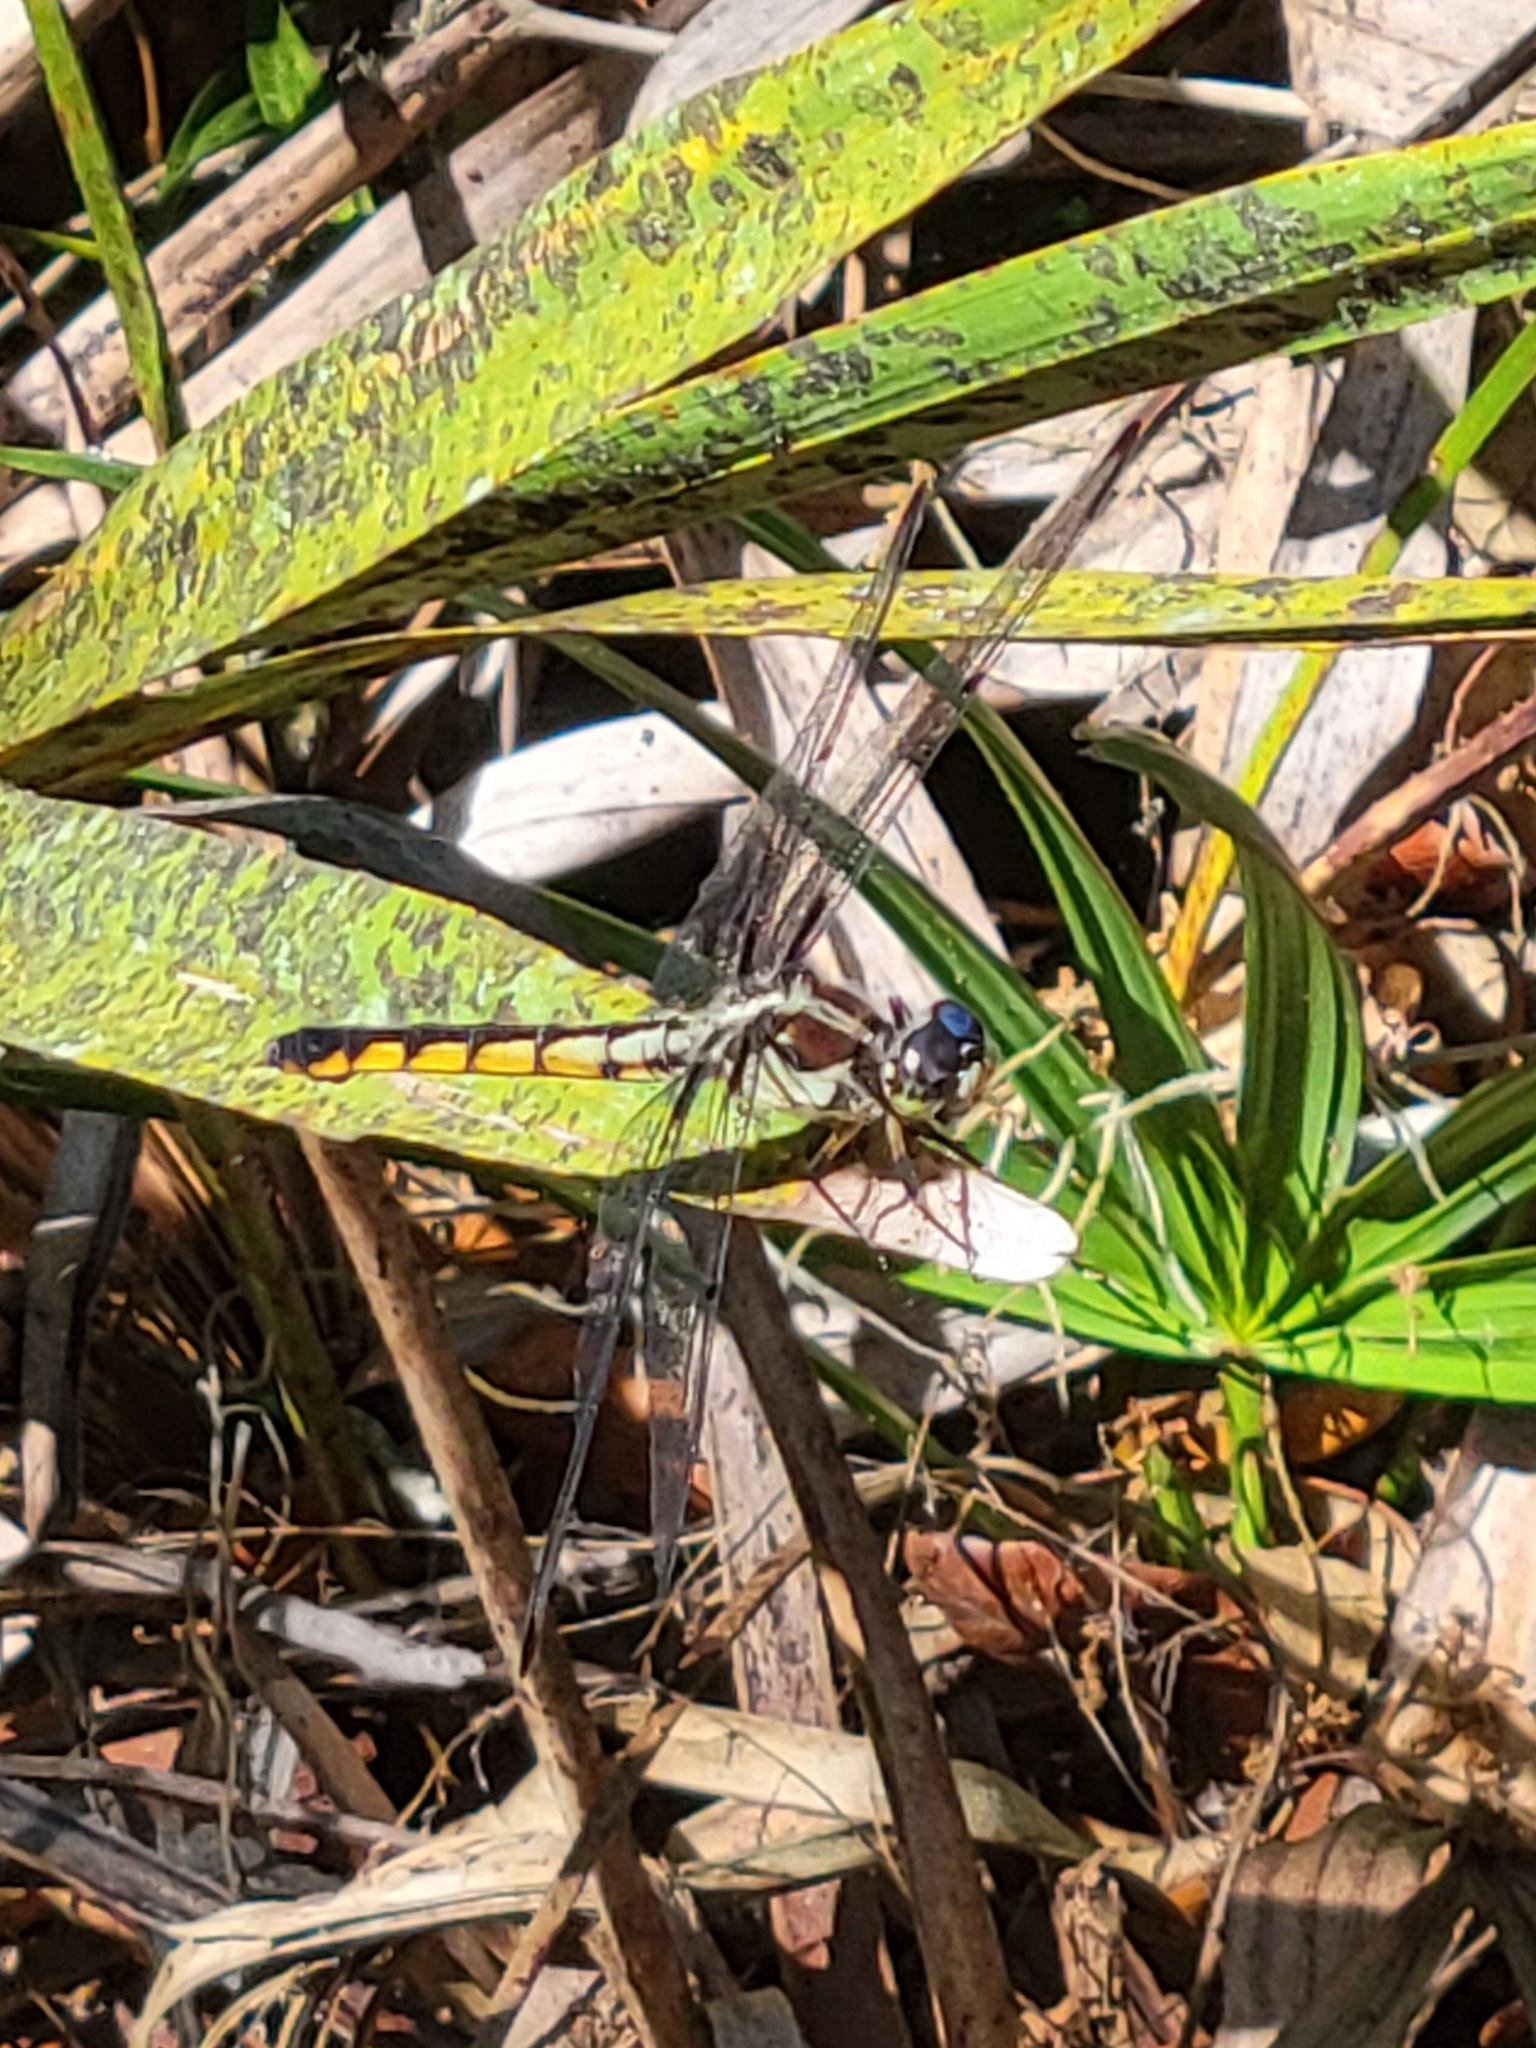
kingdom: Animalia
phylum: Arthropoda
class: Insecta
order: Odonata
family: Libellulidae
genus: Libellula
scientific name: Libellula vibrans
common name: Great blue skimmer
